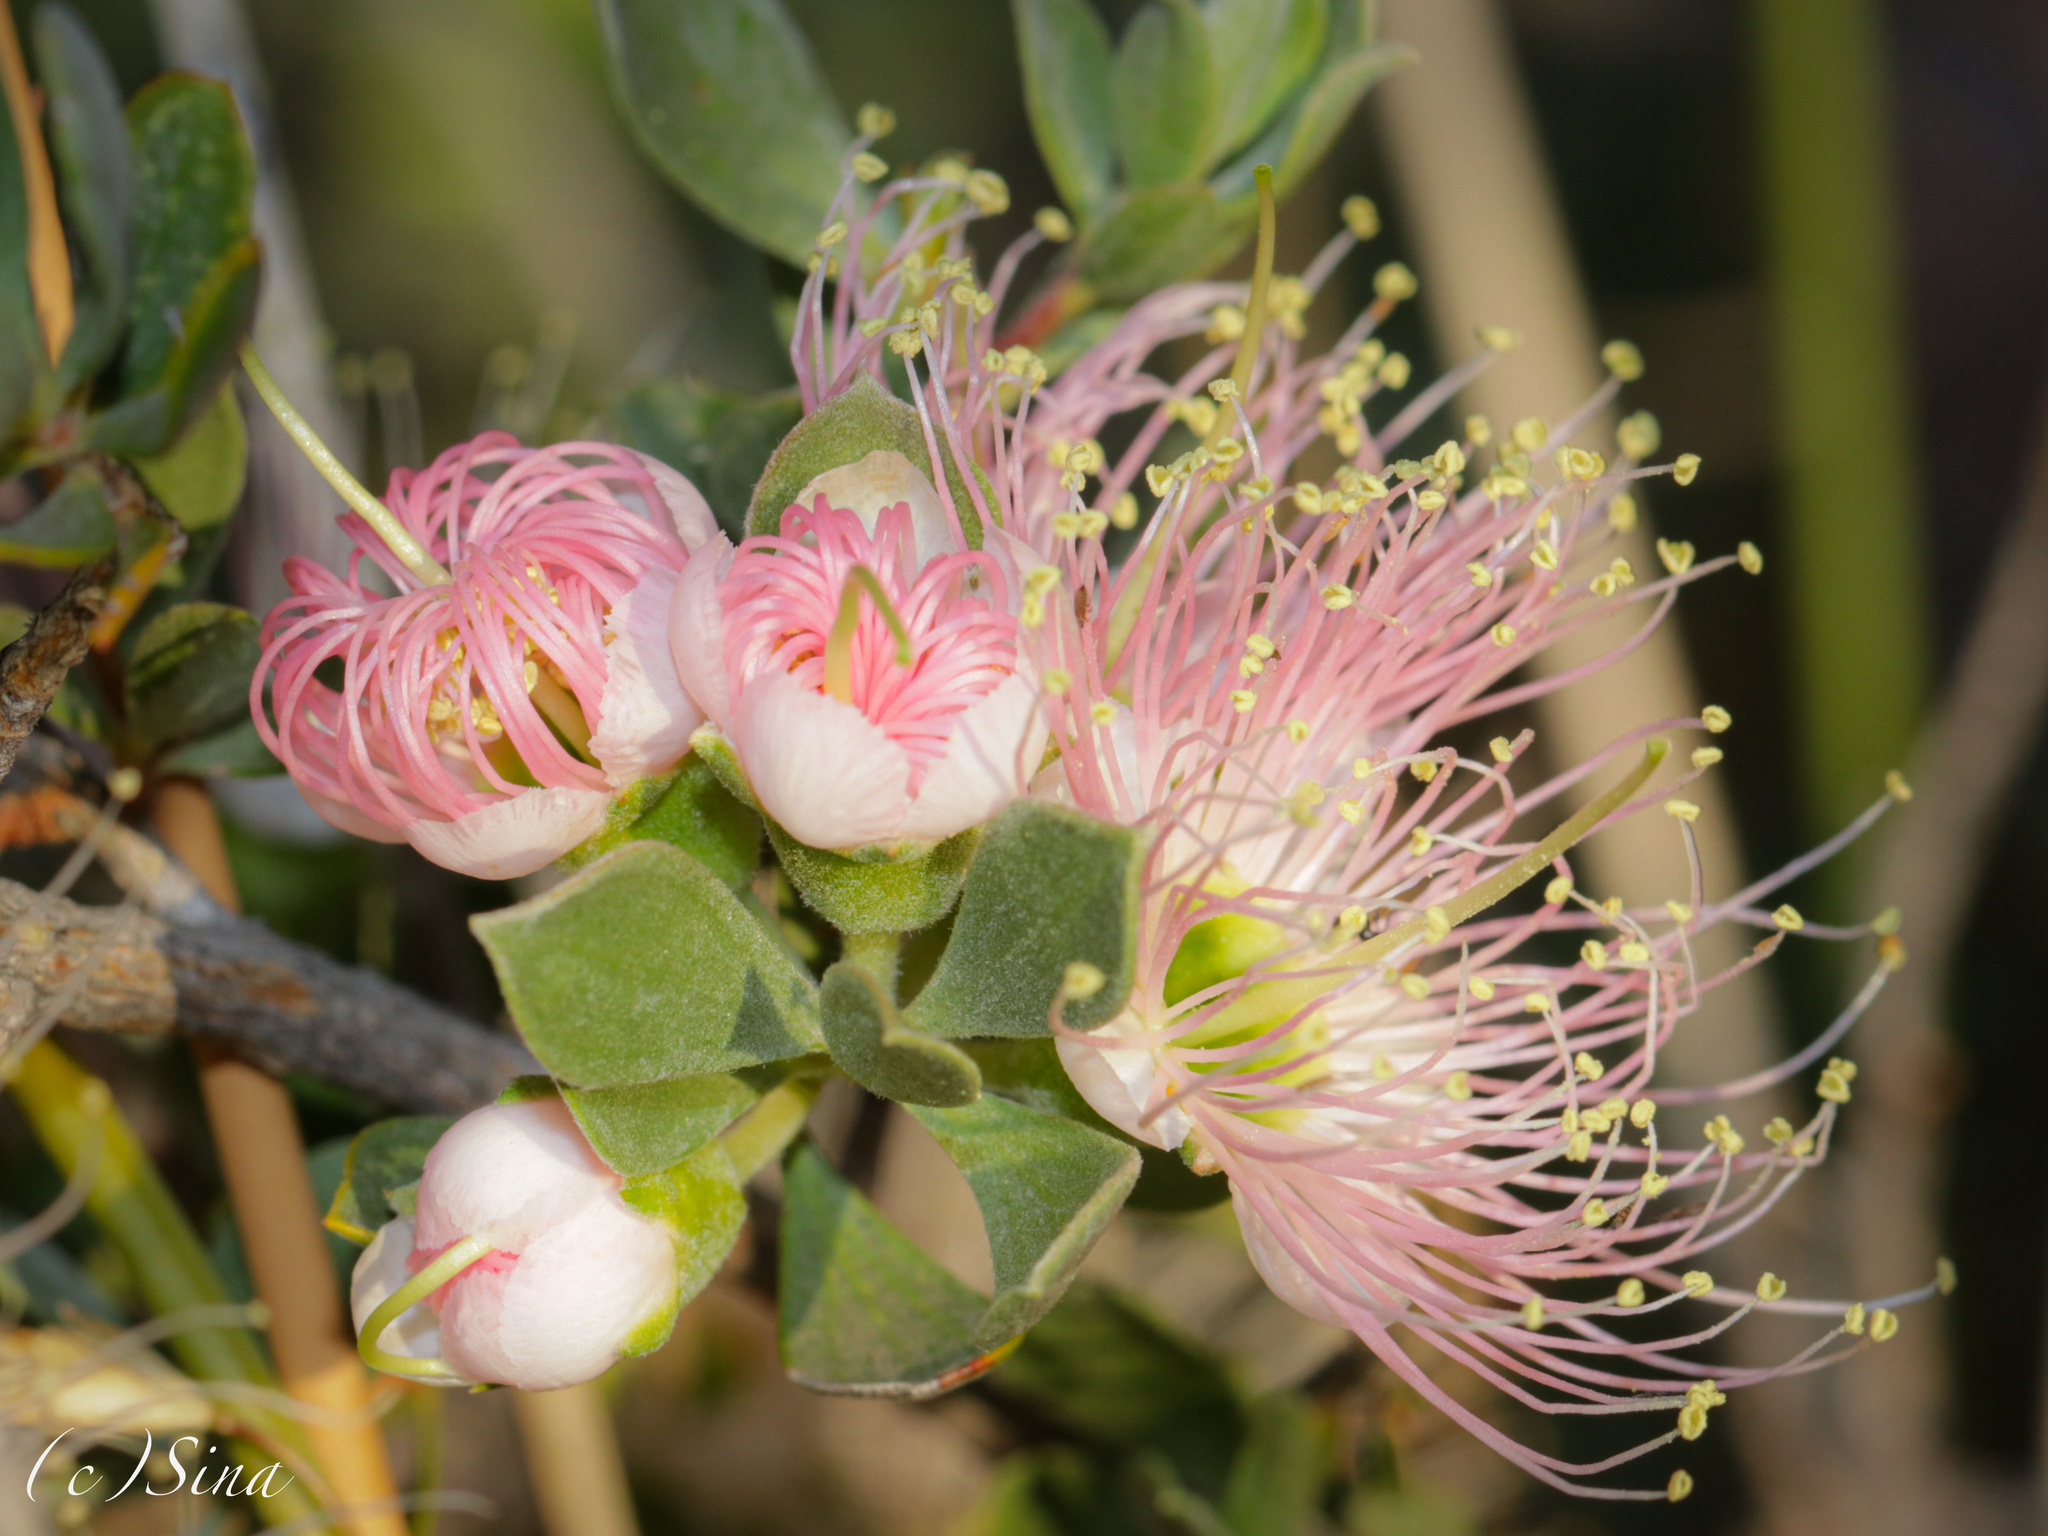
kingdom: Plantae
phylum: Tracheophyta
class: Magnoliopsida
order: Myrtales
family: Myrtaceae
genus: Kunzea
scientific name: Kunzea pulchella
